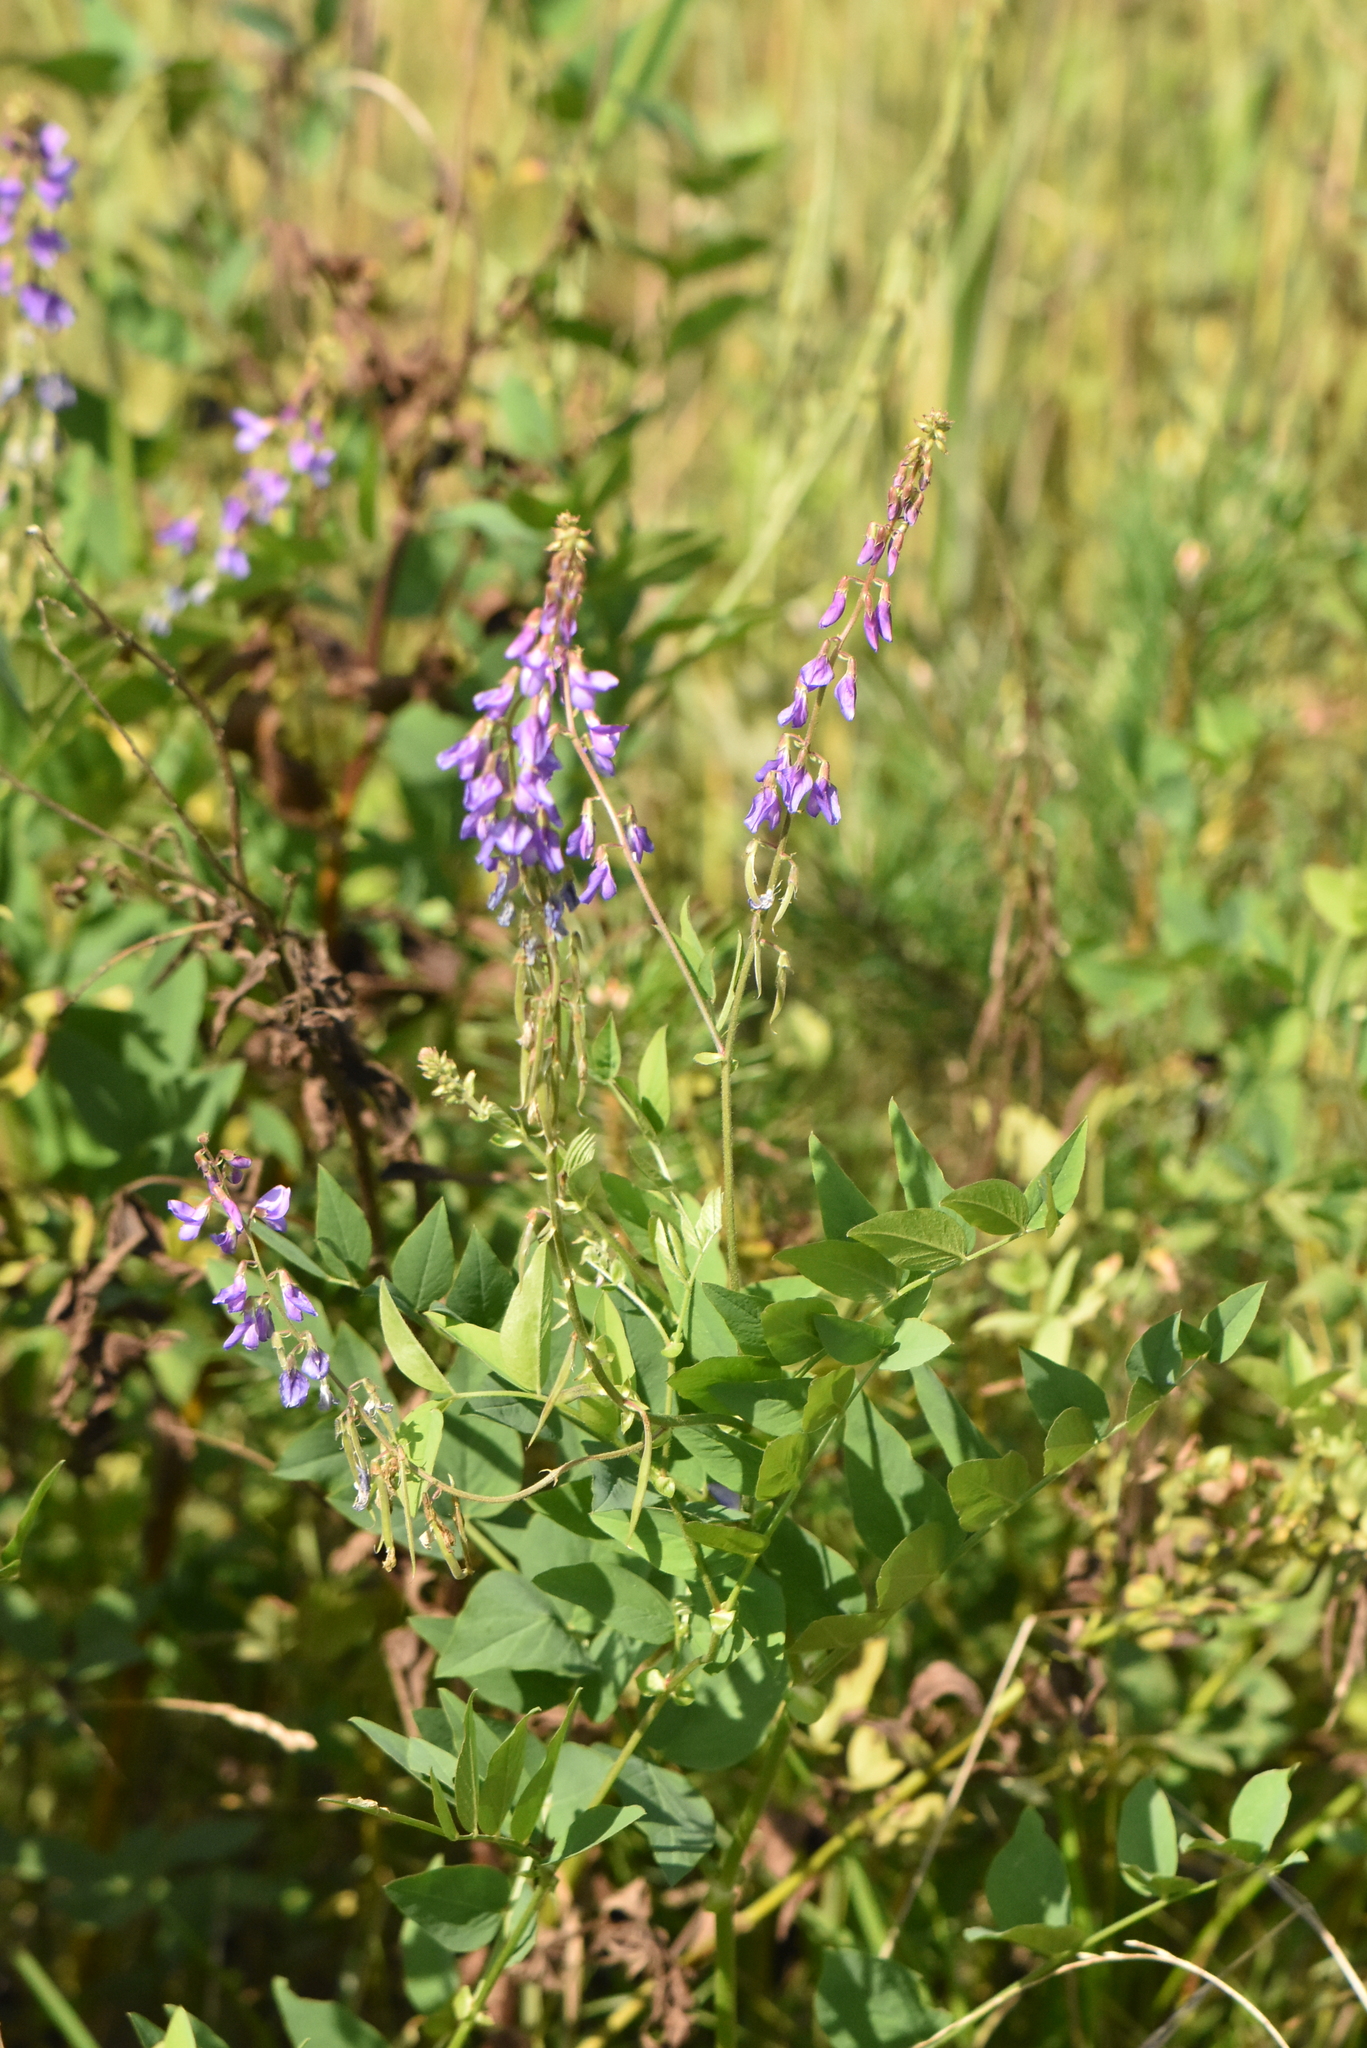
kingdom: Plantae
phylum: Tracheophyta
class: Magnoliopsida
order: Fabales
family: Fabaceae
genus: Galega
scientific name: Galega orientalis
